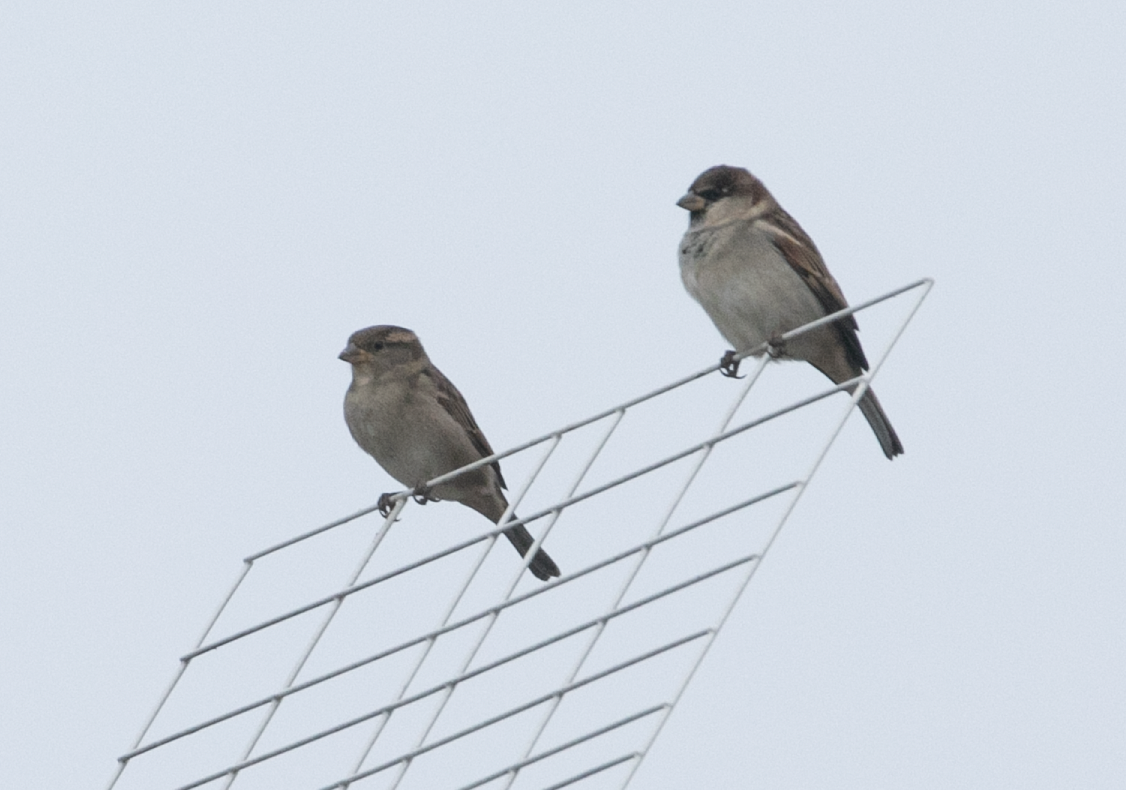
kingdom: Animalia
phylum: Chordata
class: Aves
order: Passeriformes
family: Passeridae
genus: Passer
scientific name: Passer italiae
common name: Italian sparrow
